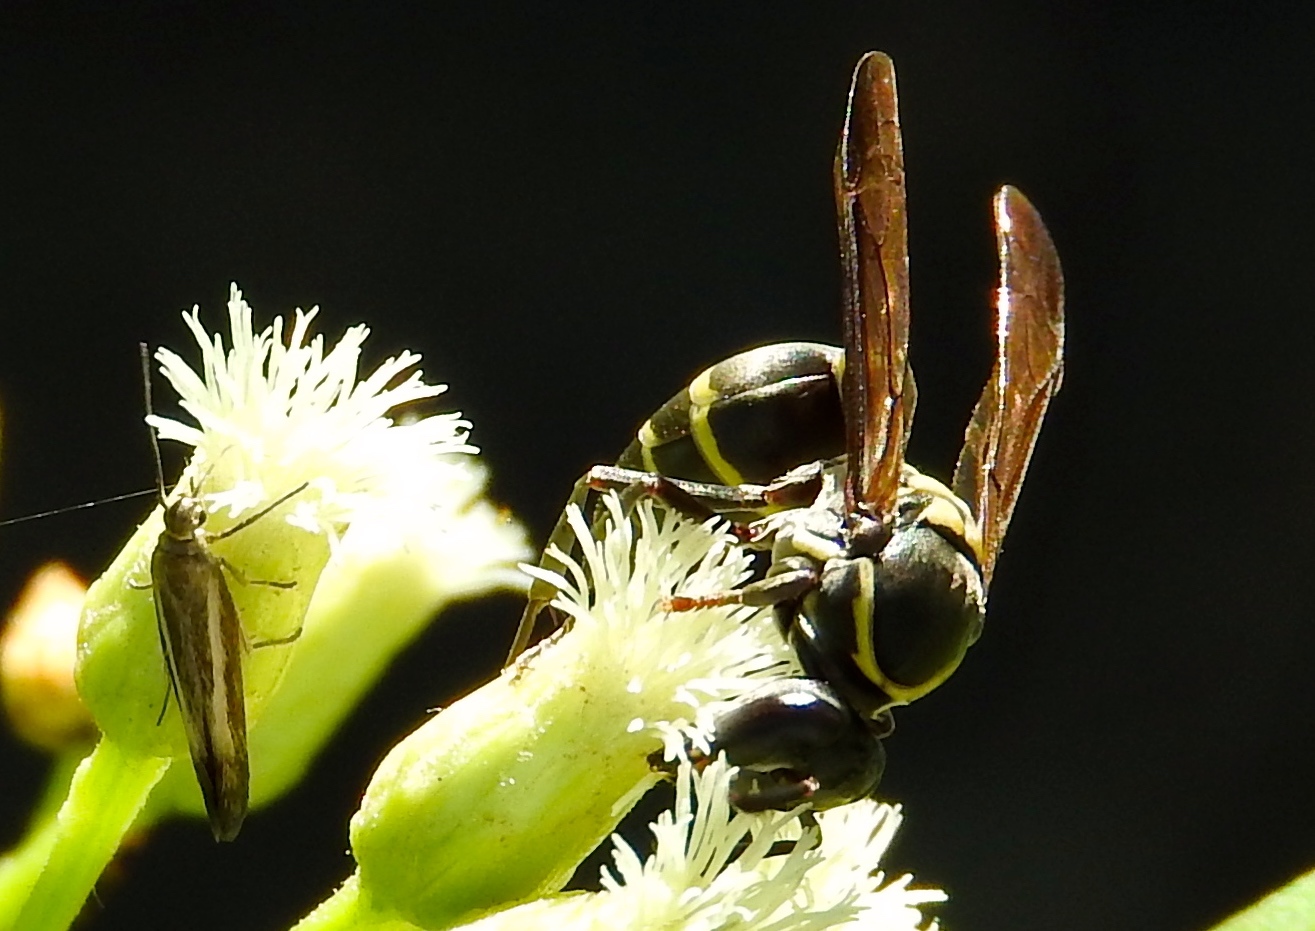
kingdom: Animalia
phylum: Arthropoda
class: Insecta
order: Hymenoptera
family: Eumenidae
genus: Polybia
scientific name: Polybia occidentalis
